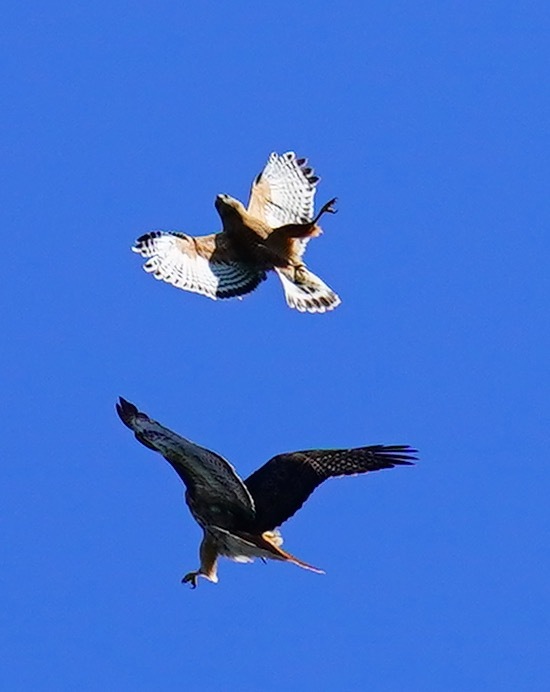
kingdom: Animalia
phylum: Chordata
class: Aves
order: Accipitriformes
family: Accipitridae
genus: Buteo
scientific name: Buteo jamaicensis
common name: Red-tailed hawk
